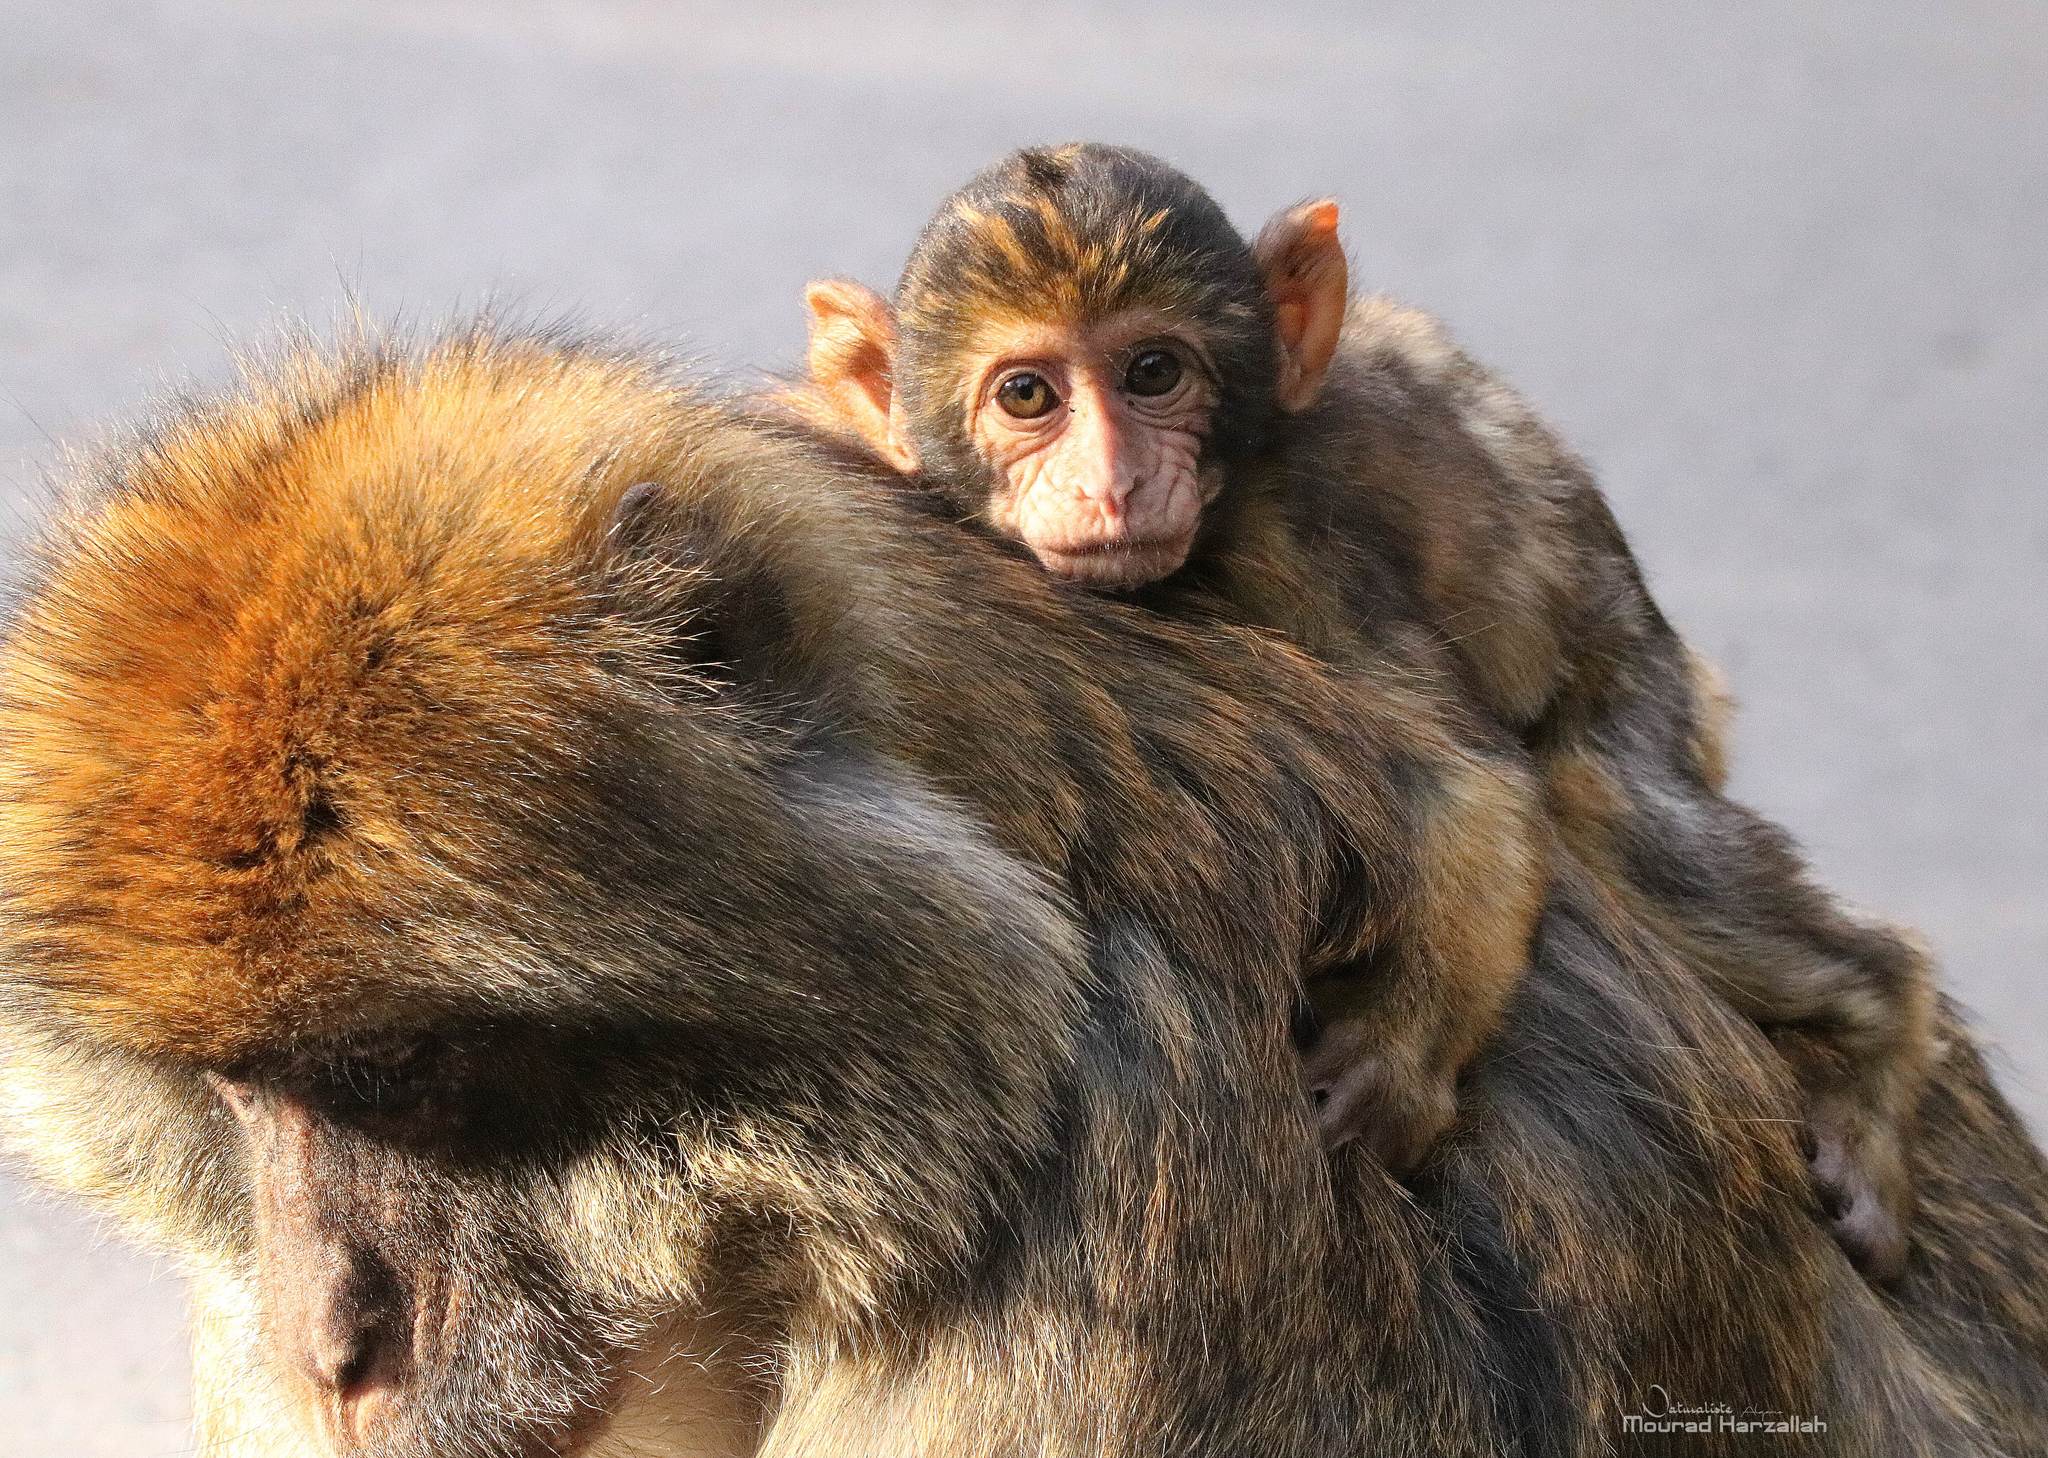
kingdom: Animalia
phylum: Chordata
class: Mammalia
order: Primates
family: Cercopithecidae
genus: Macaca
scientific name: Macaca sylvanus
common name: Barbary macaque
